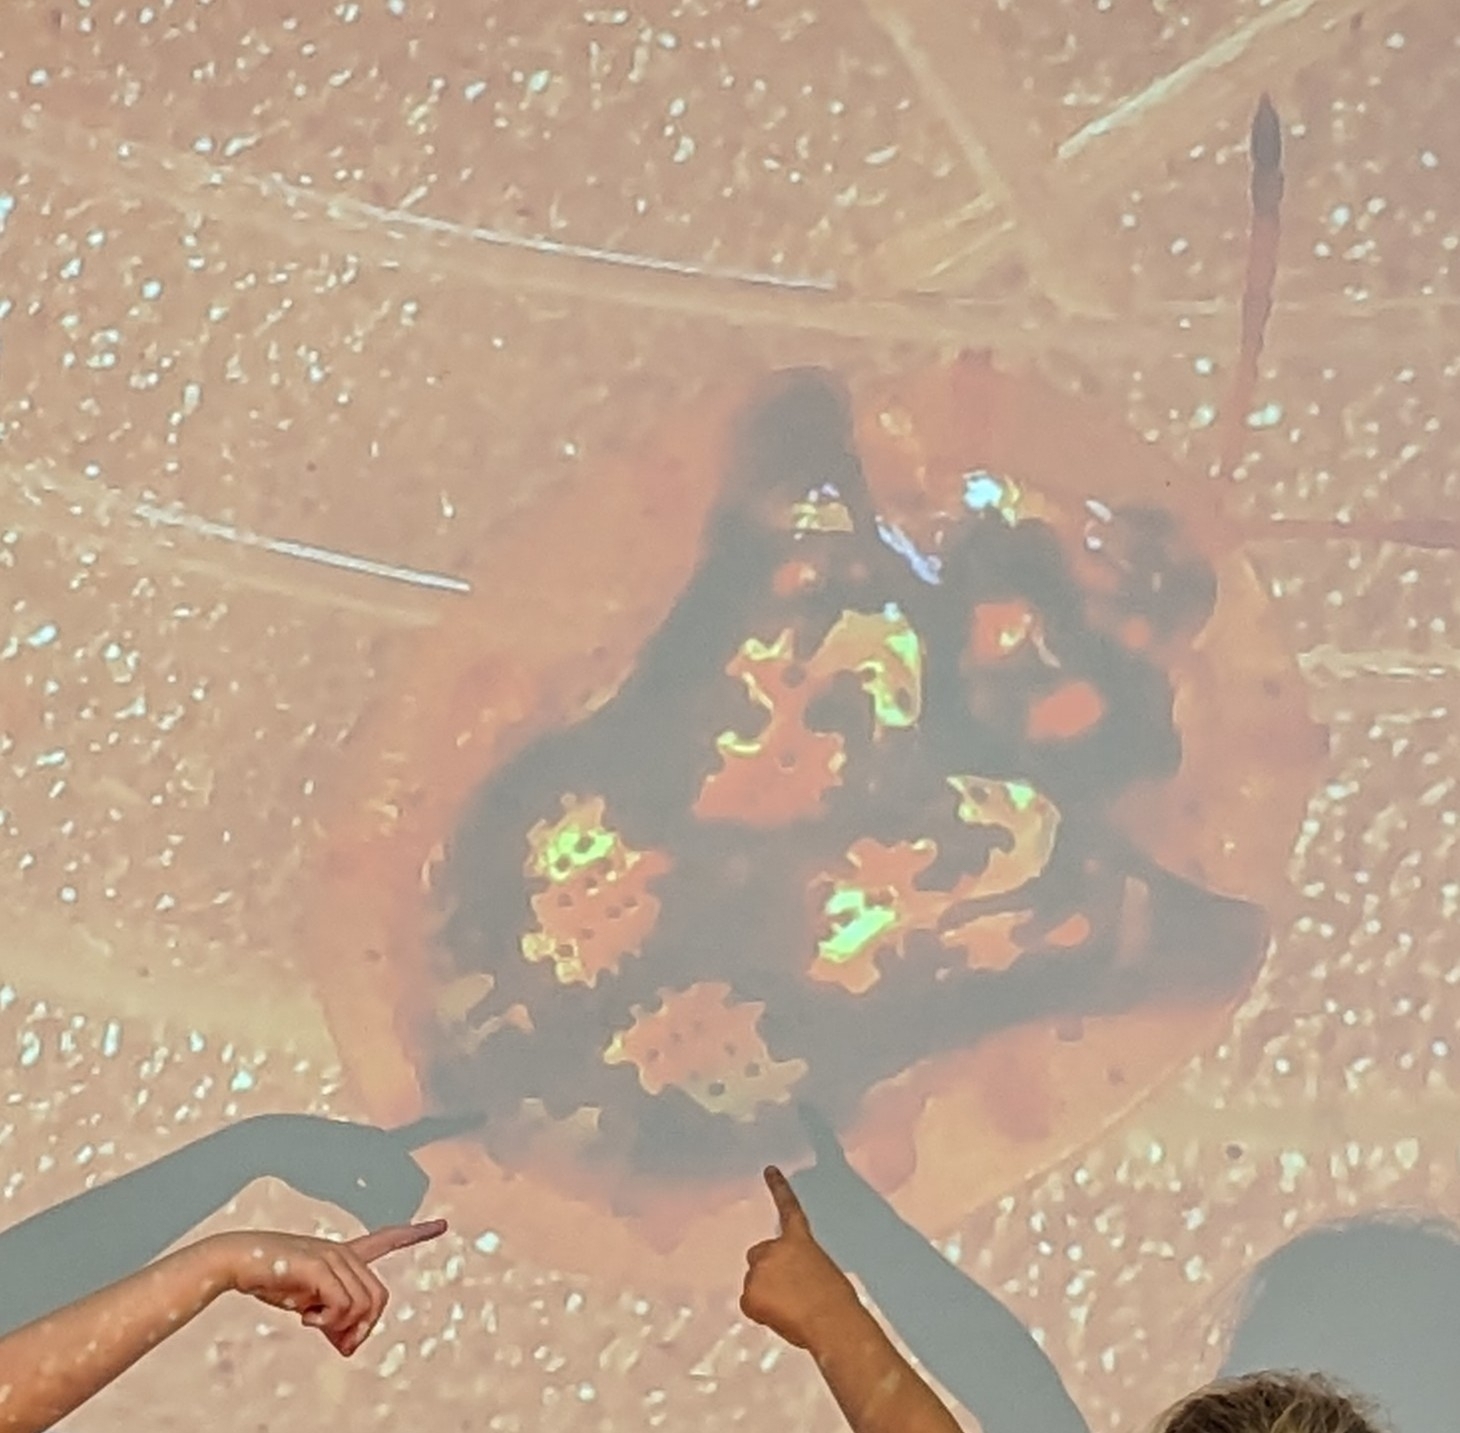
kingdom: Animalia
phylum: Arthropoda
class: Insecta
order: Coleoptera
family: Chrysomelidae
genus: Deloyala
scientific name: Deloyala guttata
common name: Mottled tortoise beetle
